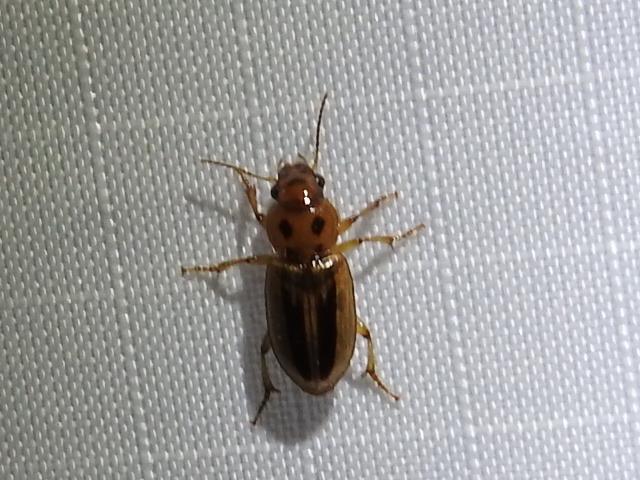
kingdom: Animalia
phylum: Arthropoda
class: Insecta
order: Coleoptera
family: Carabidae
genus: Stenolophus
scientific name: Stenolophus lineola
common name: Lined stenolophus
